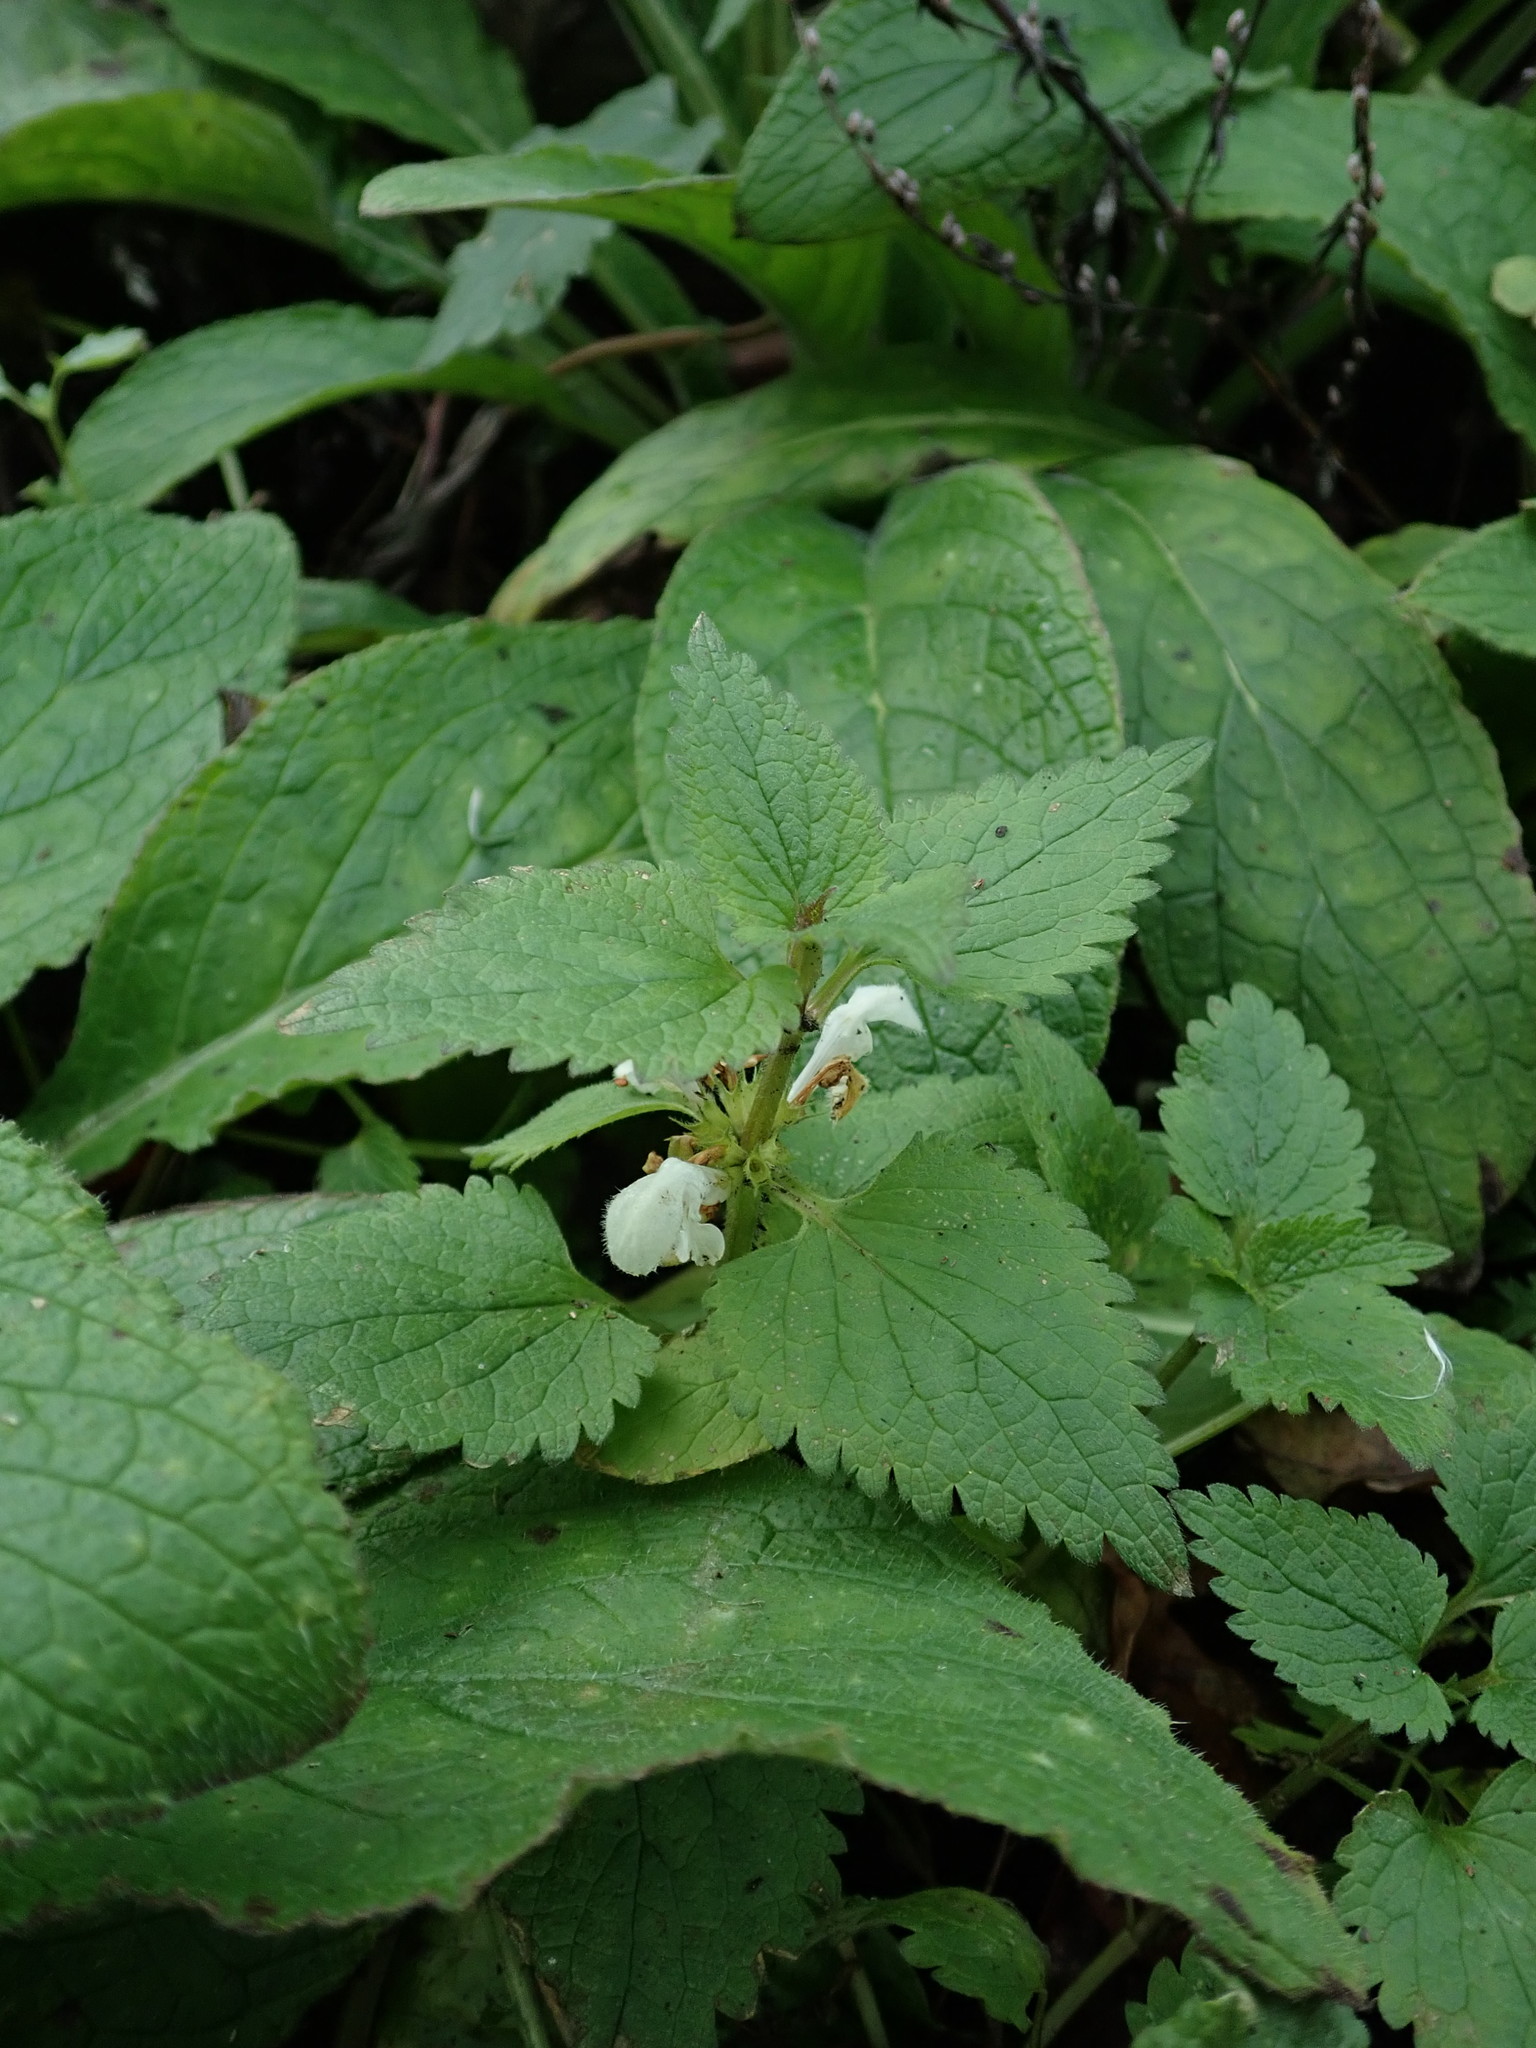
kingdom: Plantae
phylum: Tracheophyta
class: Magnoliopsida
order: Lamiales
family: Lamiaceae
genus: Lamium
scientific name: Lamium album
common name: White dead-nettle
